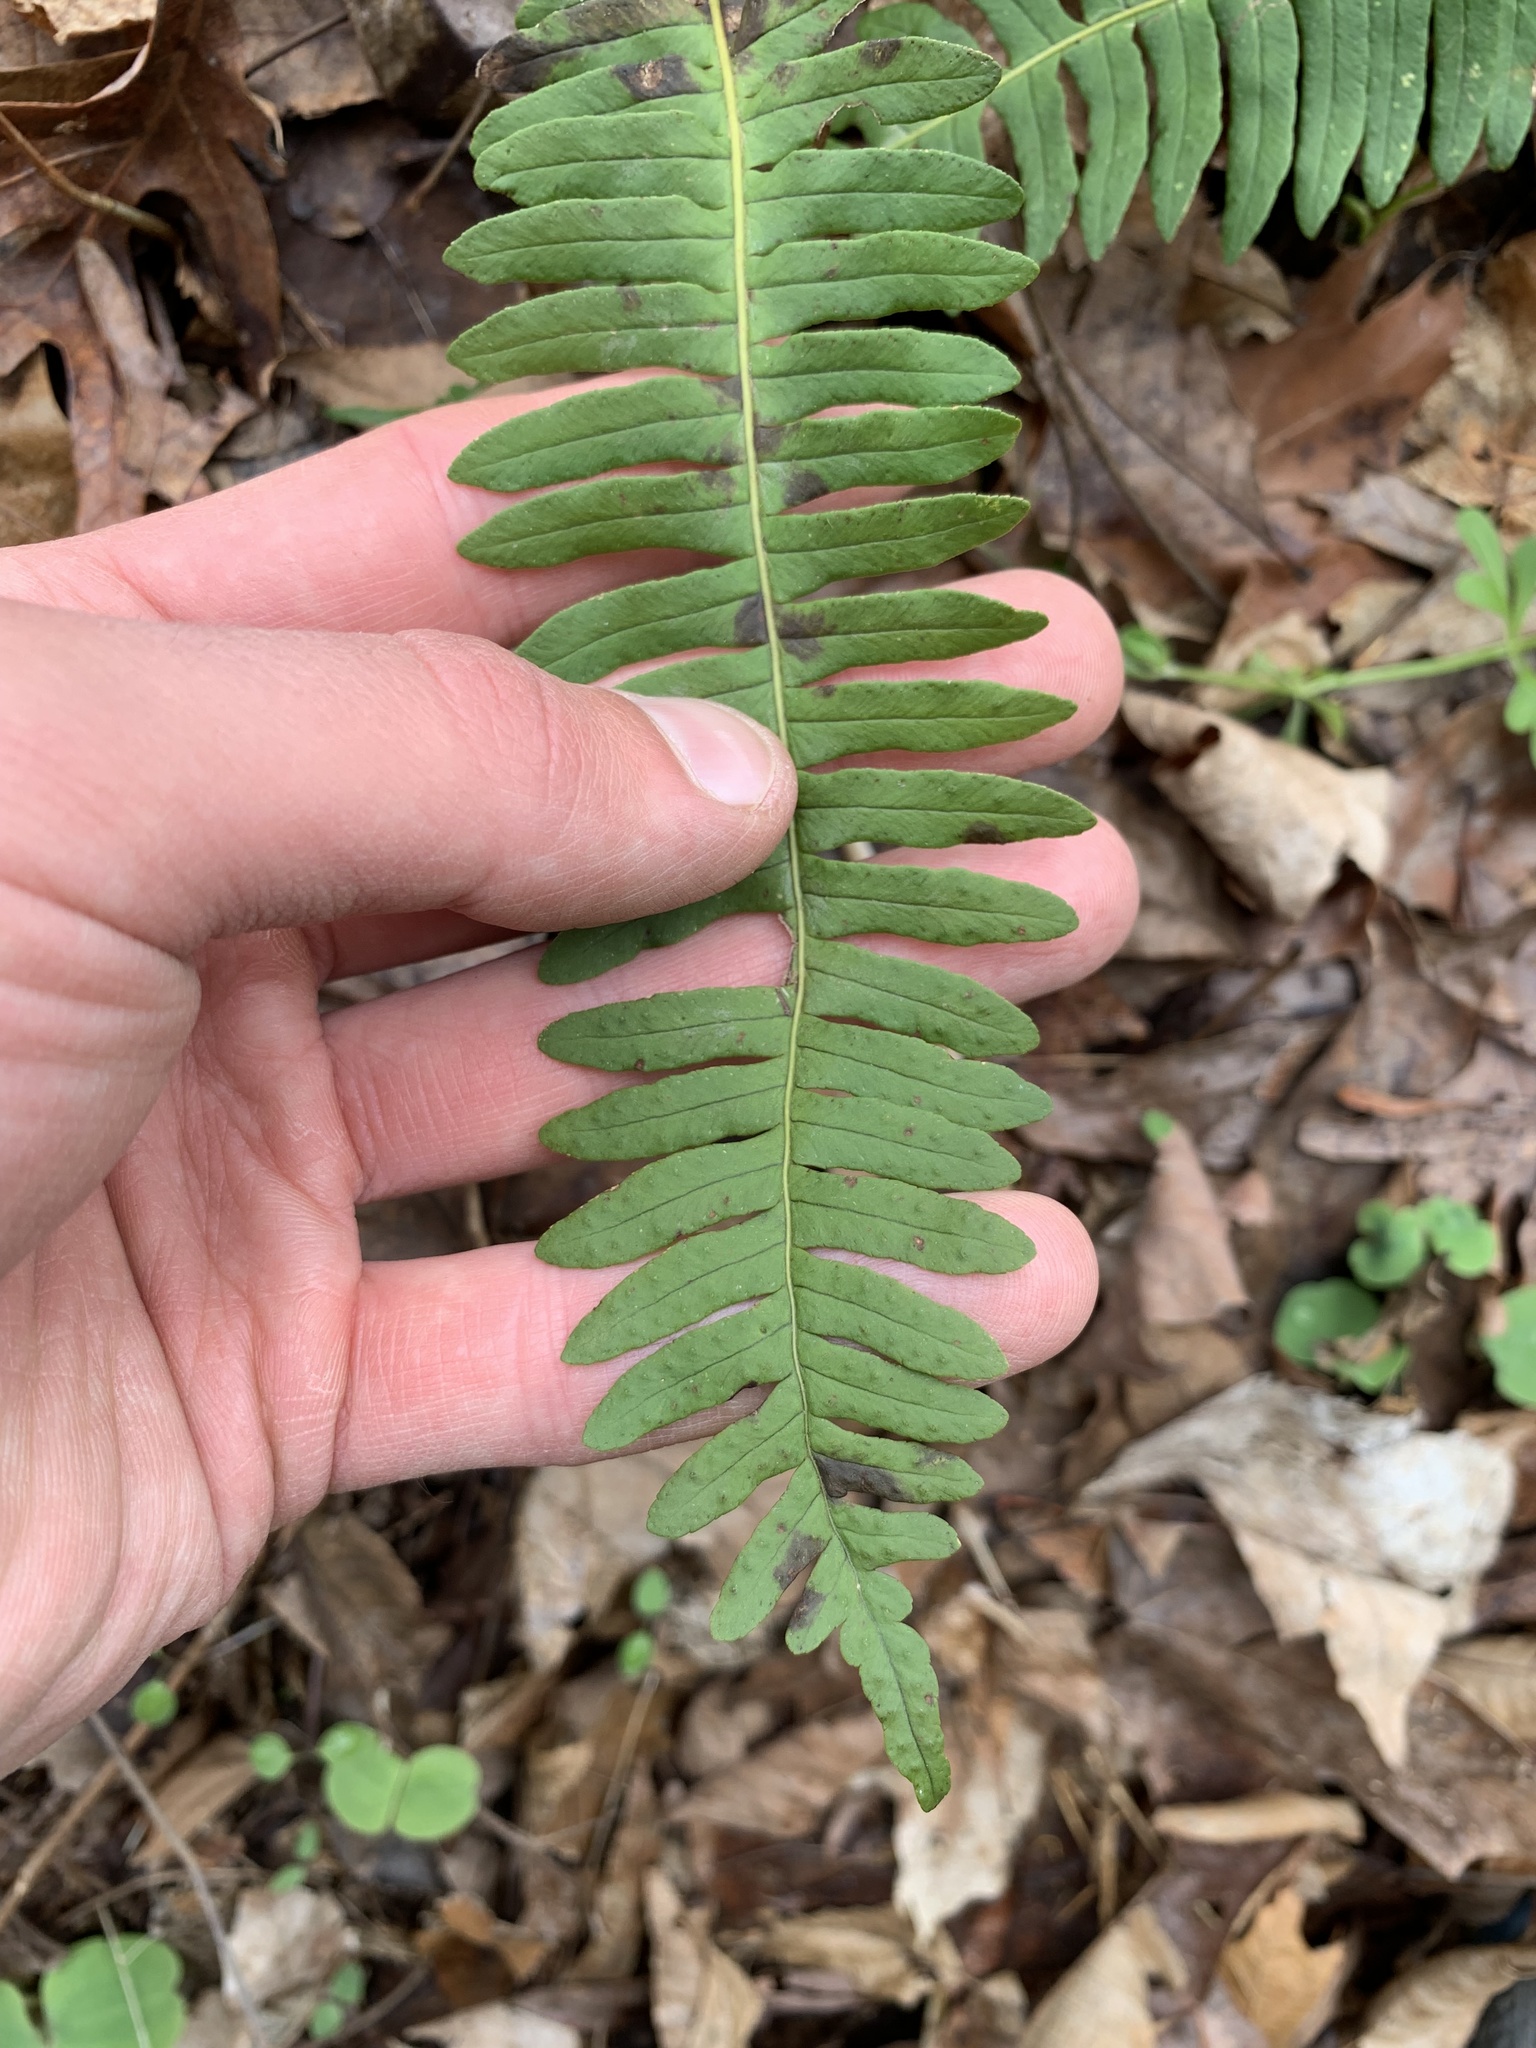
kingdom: Plantae
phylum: Tracheophyta
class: Polypodiopsida
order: Polypodiales
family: Polypodiaceae
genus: Polypodium
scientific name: Polypodium virginianum
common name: American wall fern
